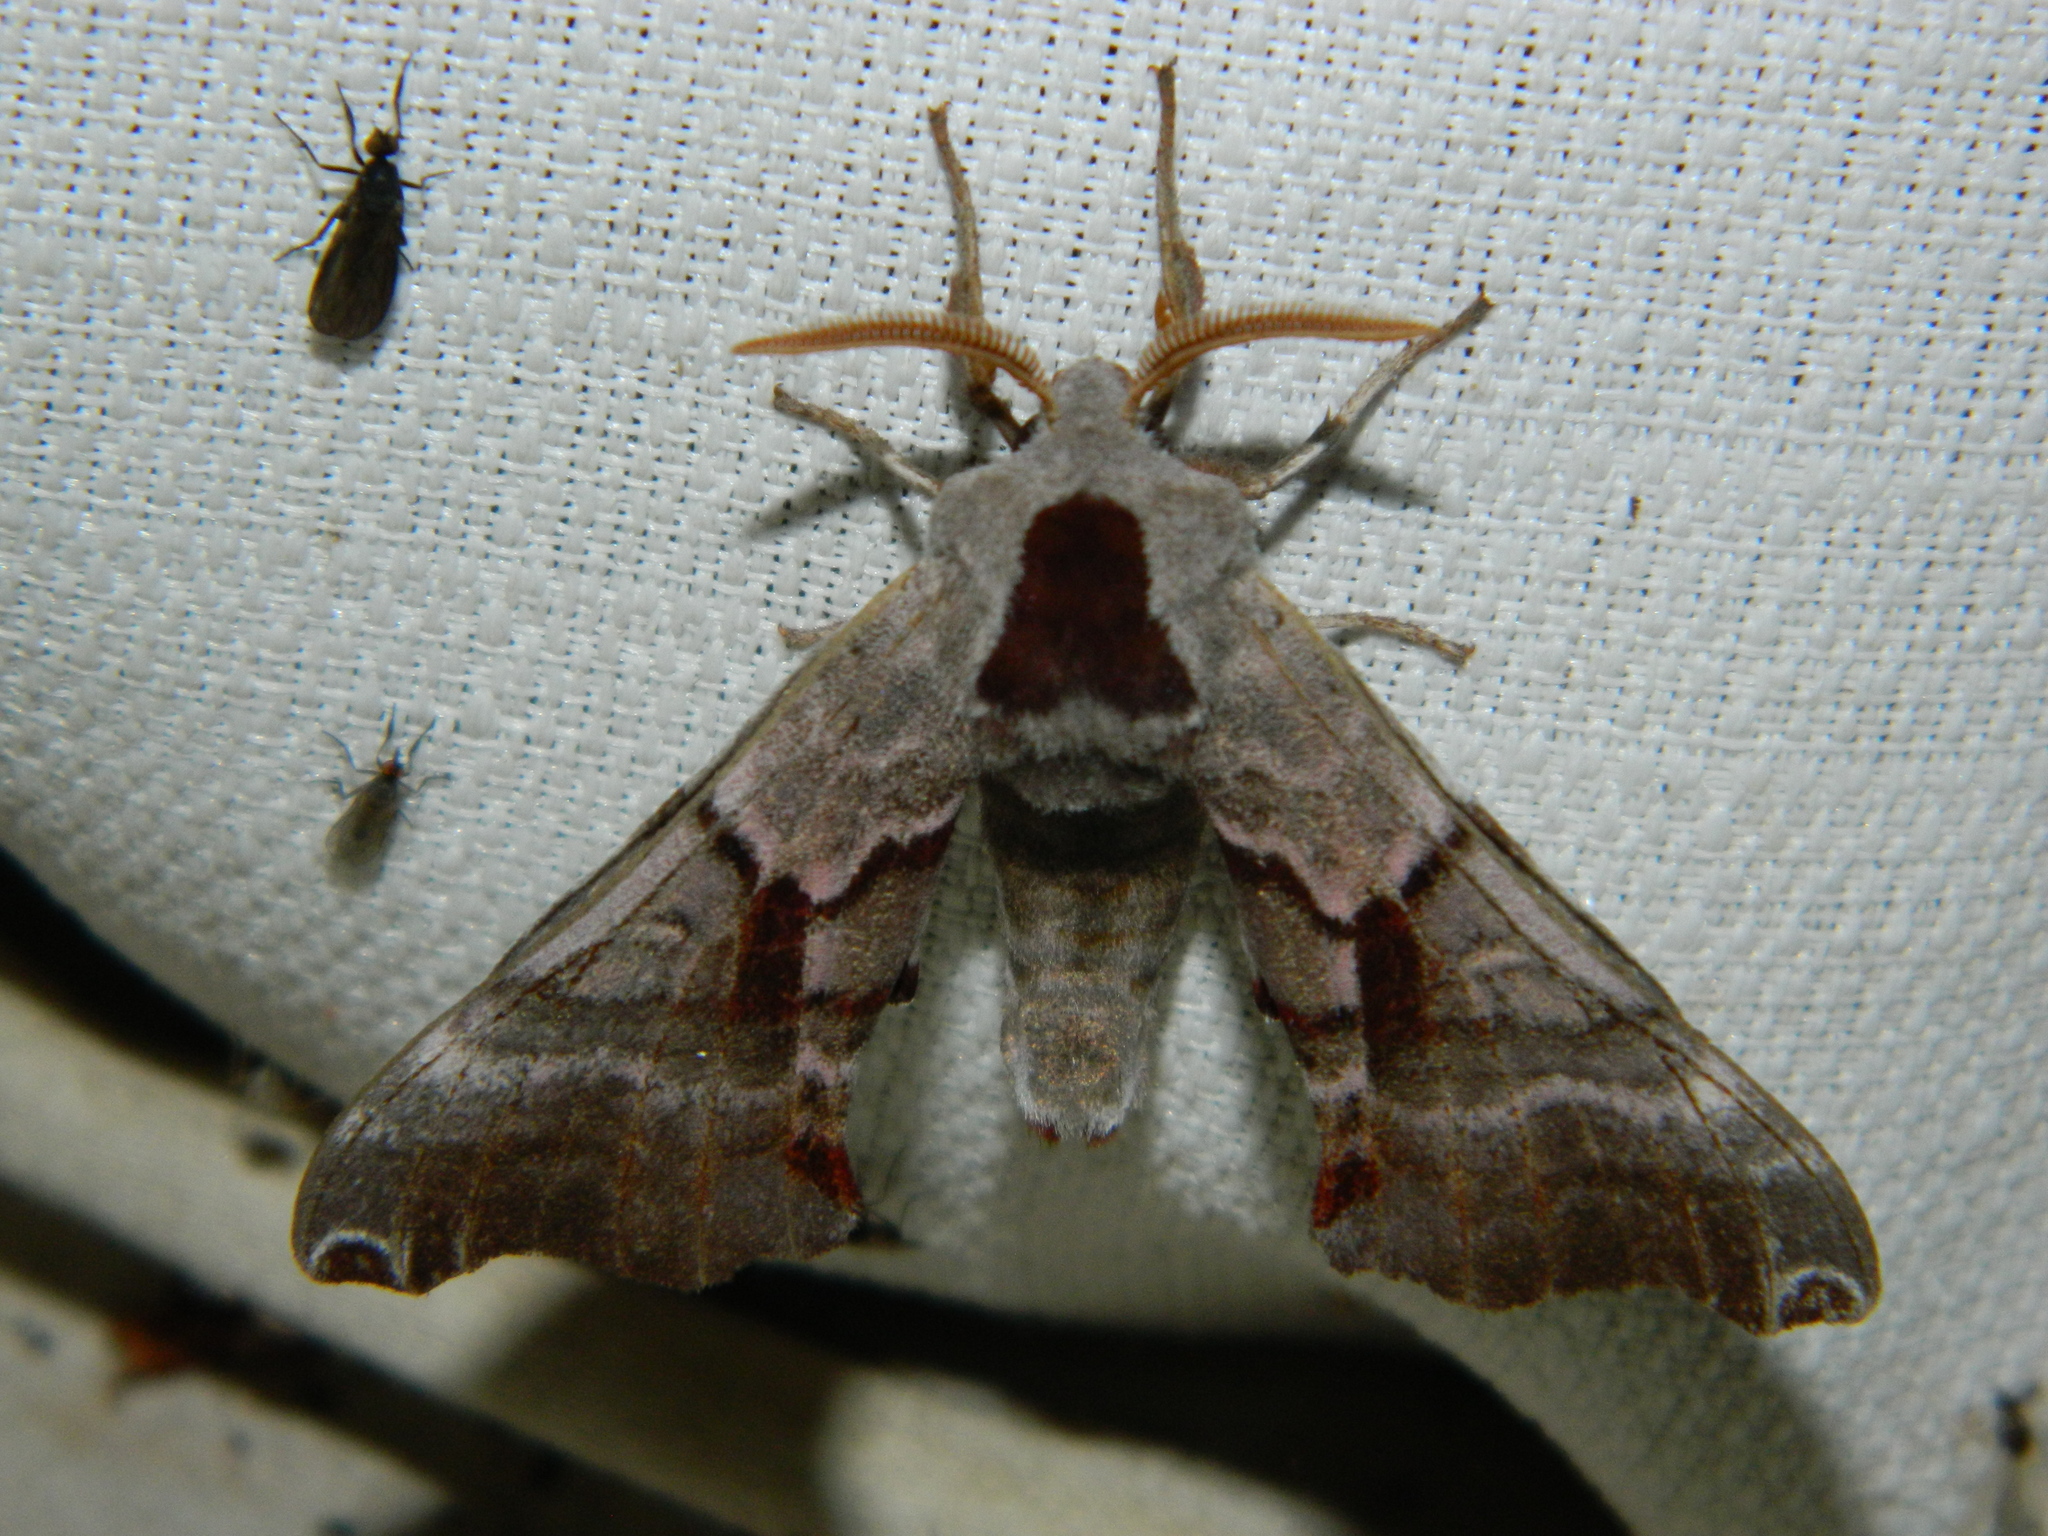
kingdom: Animalia
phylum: Arthropoda
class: Insecta
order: Lepidoptera
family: Sphingidae
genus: Smerinthus
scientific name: Smerinthus jamaicensis
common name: Twin spotted sphinx
